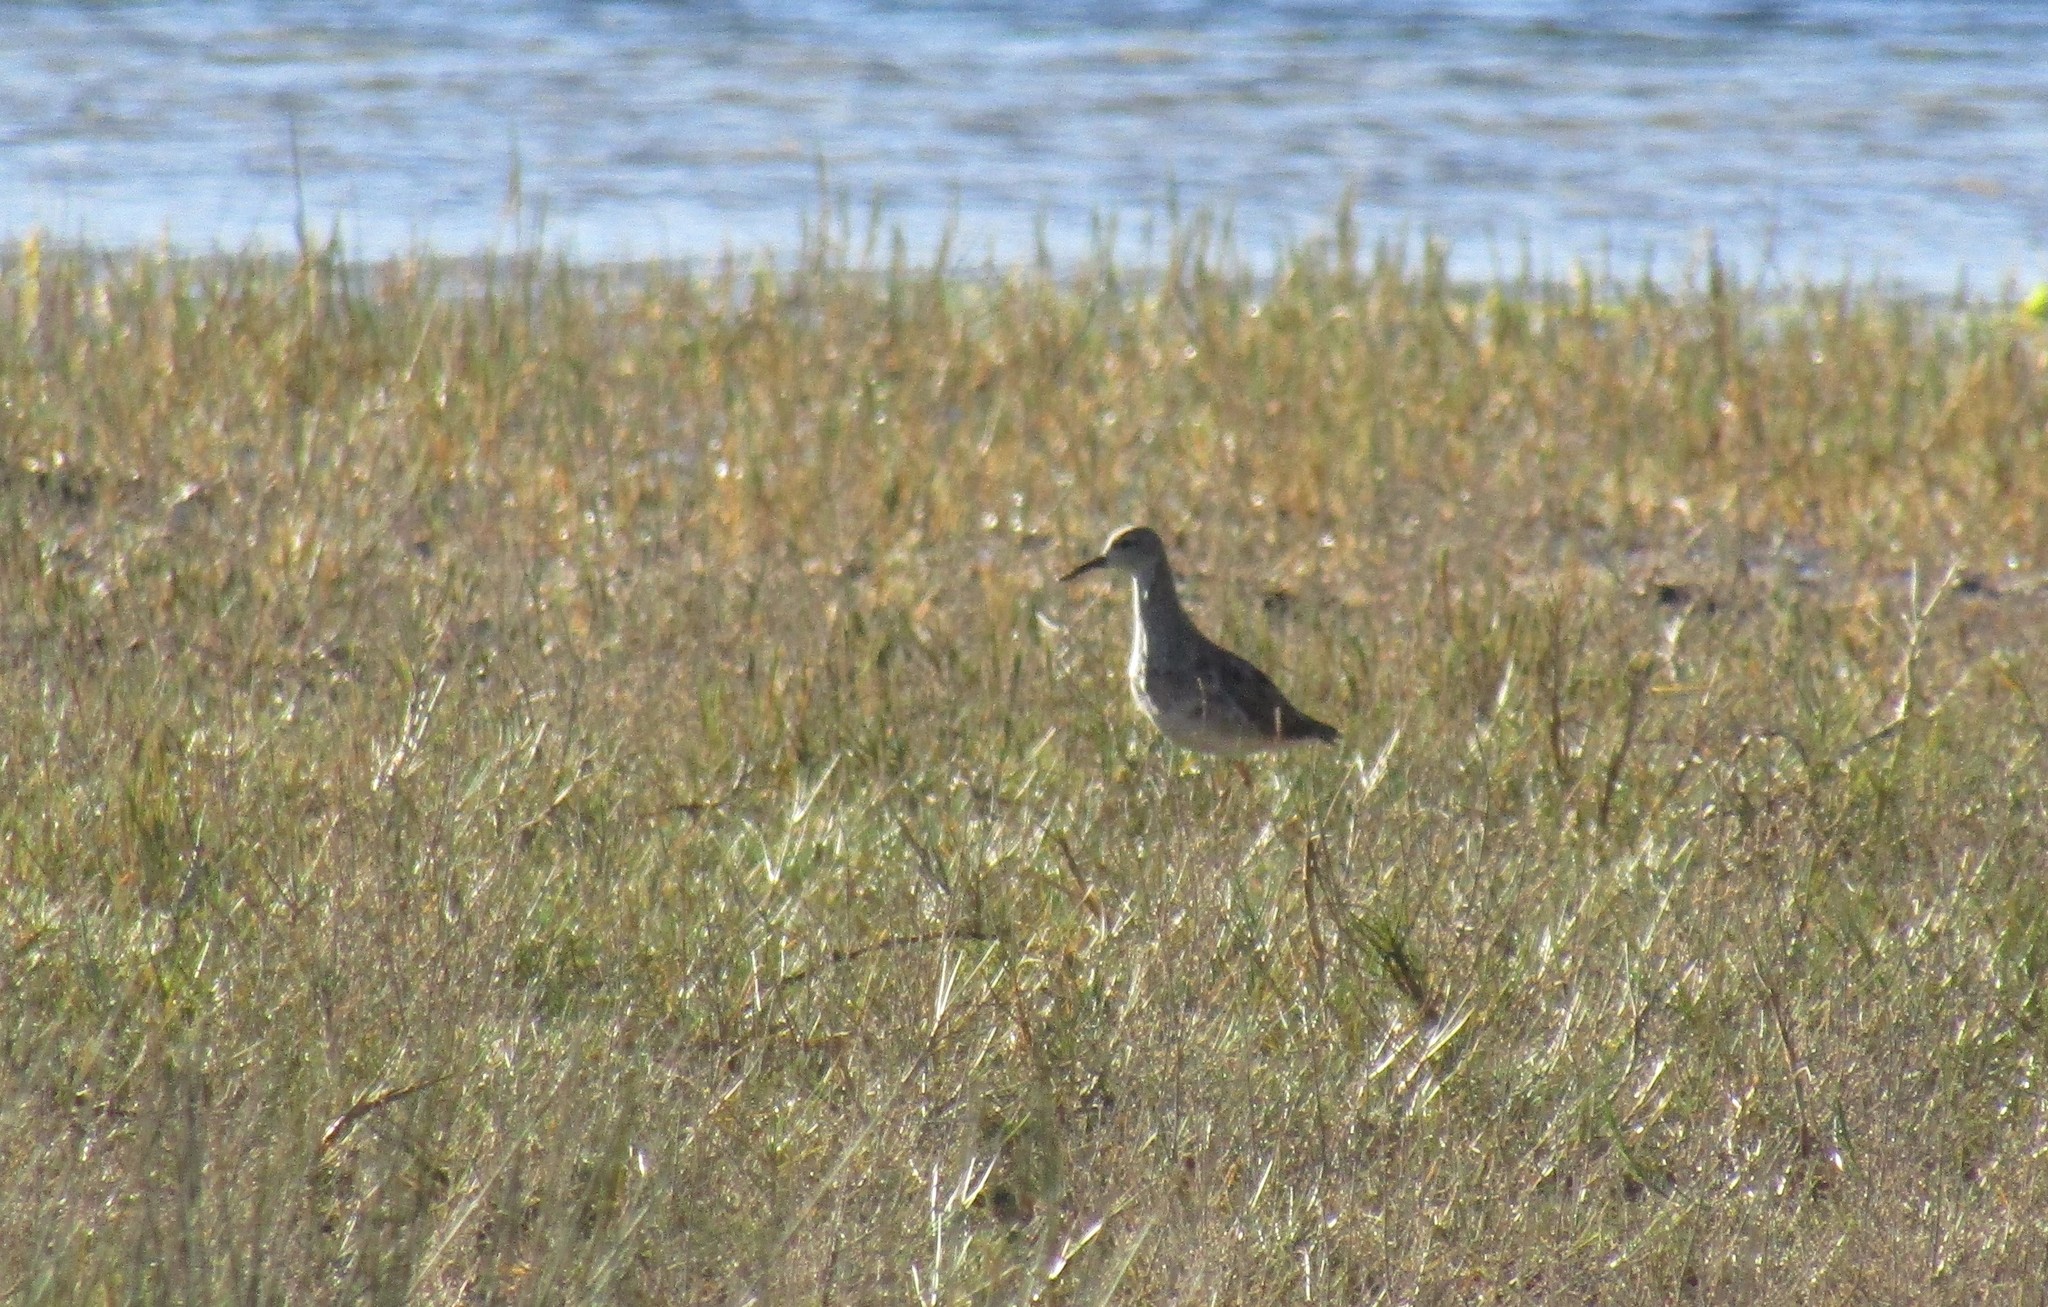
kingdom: Animalia
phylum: Chordata
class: Aves
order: Charadriiformes
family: Scolopacidae
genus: Calidris
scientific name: Calidris pugnax
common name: Ruff
